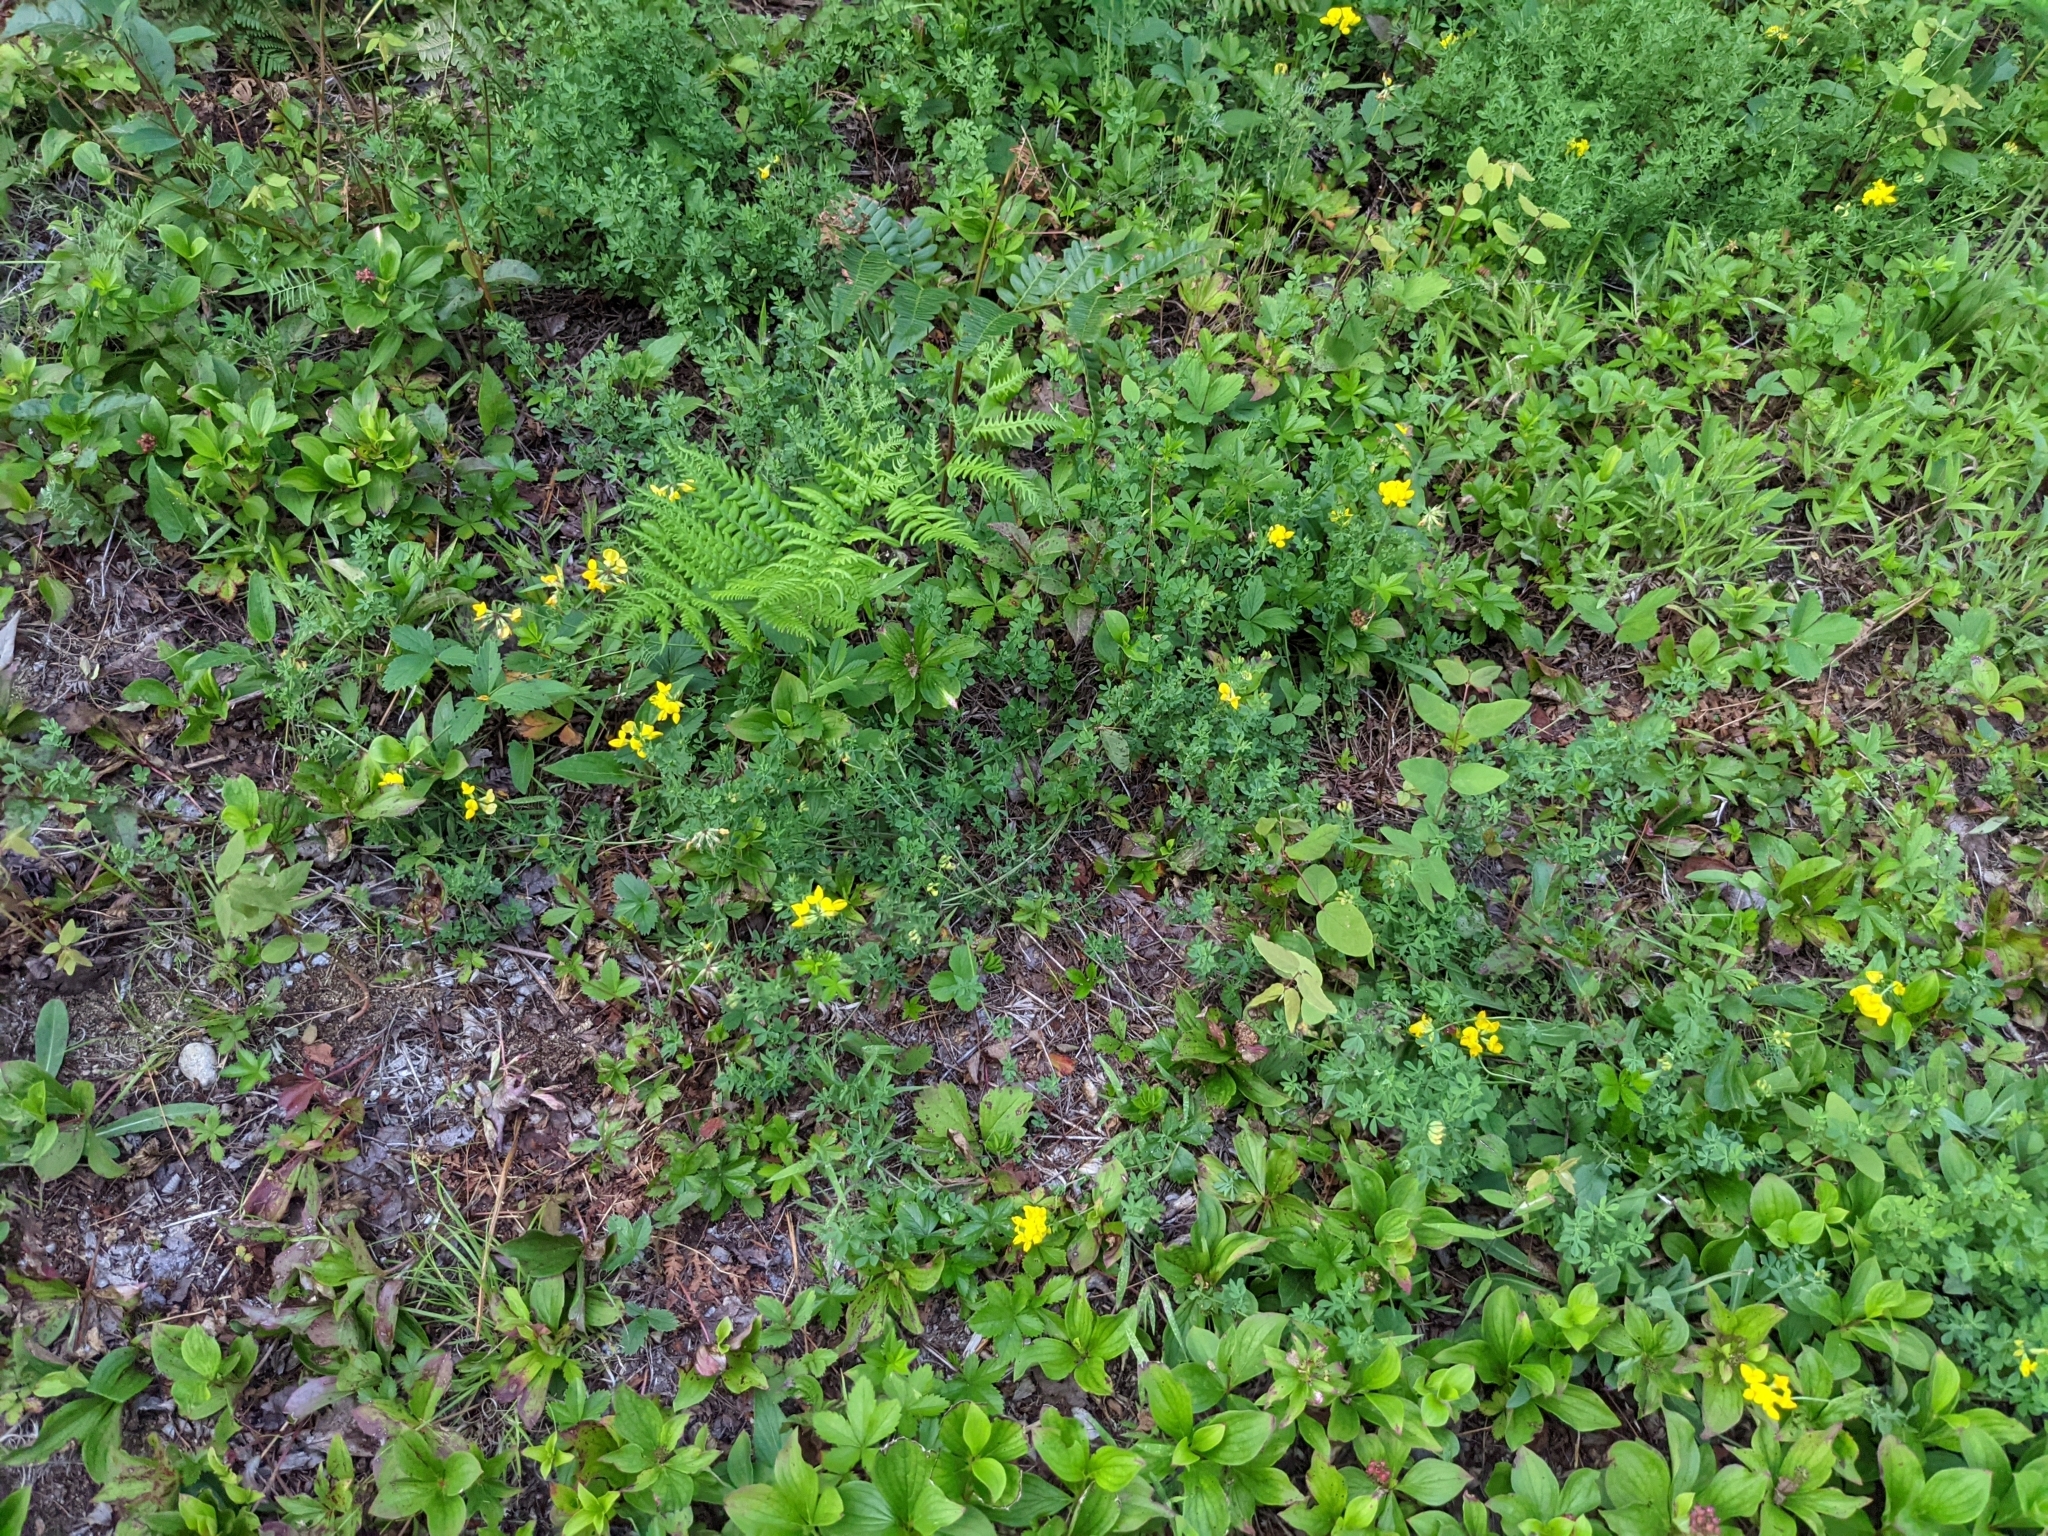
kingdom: Plantae
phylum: Tracheophyta
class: Magnoliopsida
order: Fabales
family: Fabaceae
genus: Lotus
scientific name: Lotus corniculatus
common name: Common bird's-foot-trefoil
